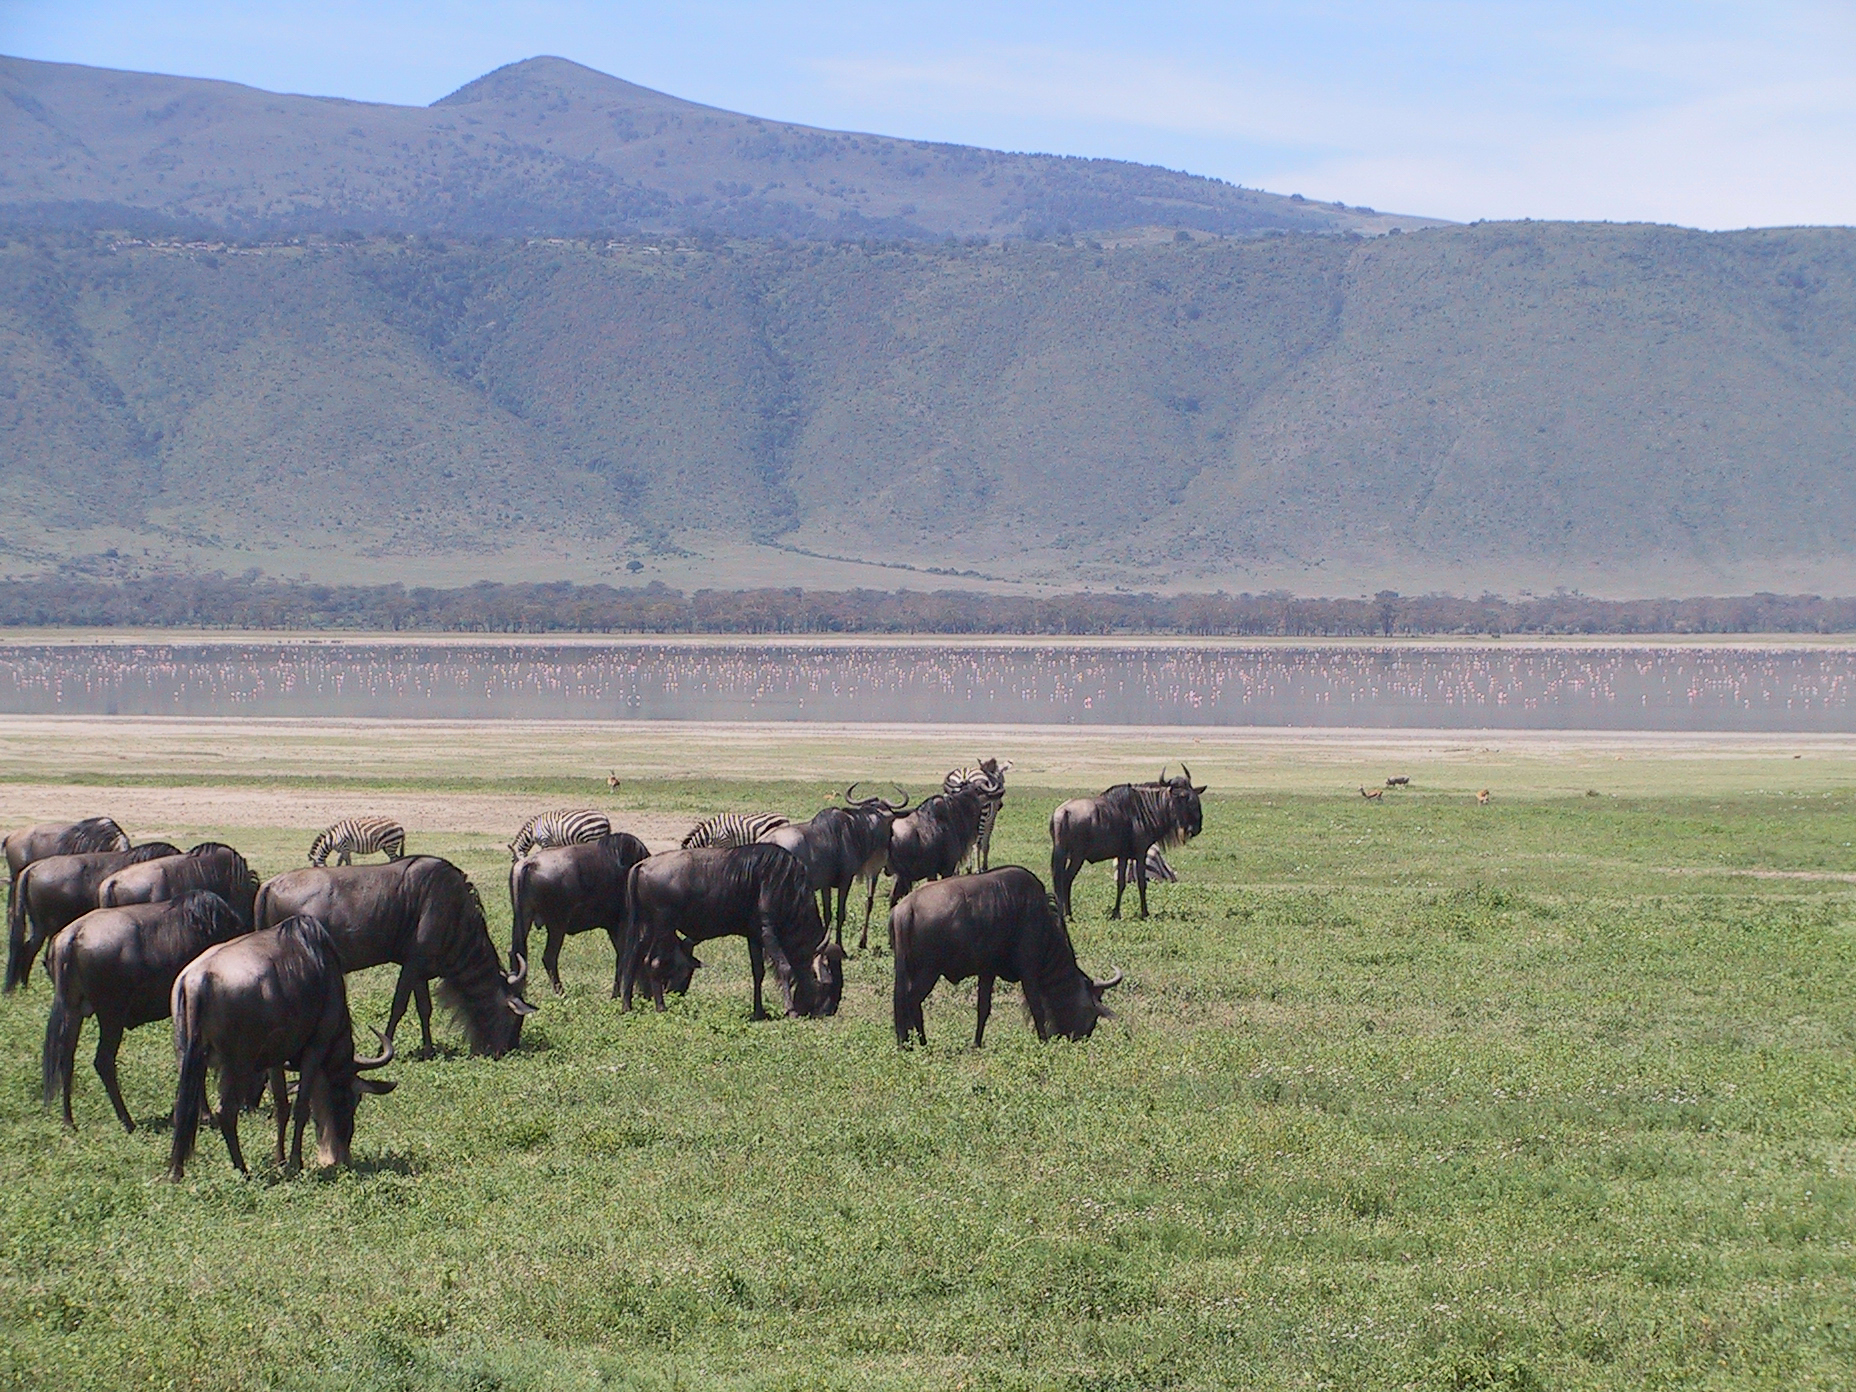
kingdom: Animalia
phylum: Chordata
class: Mammalia
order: Artiodactyla
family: Bovidae
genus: Connochaetes
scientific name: Connochaetes taurinus
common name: Blue wildebeest
